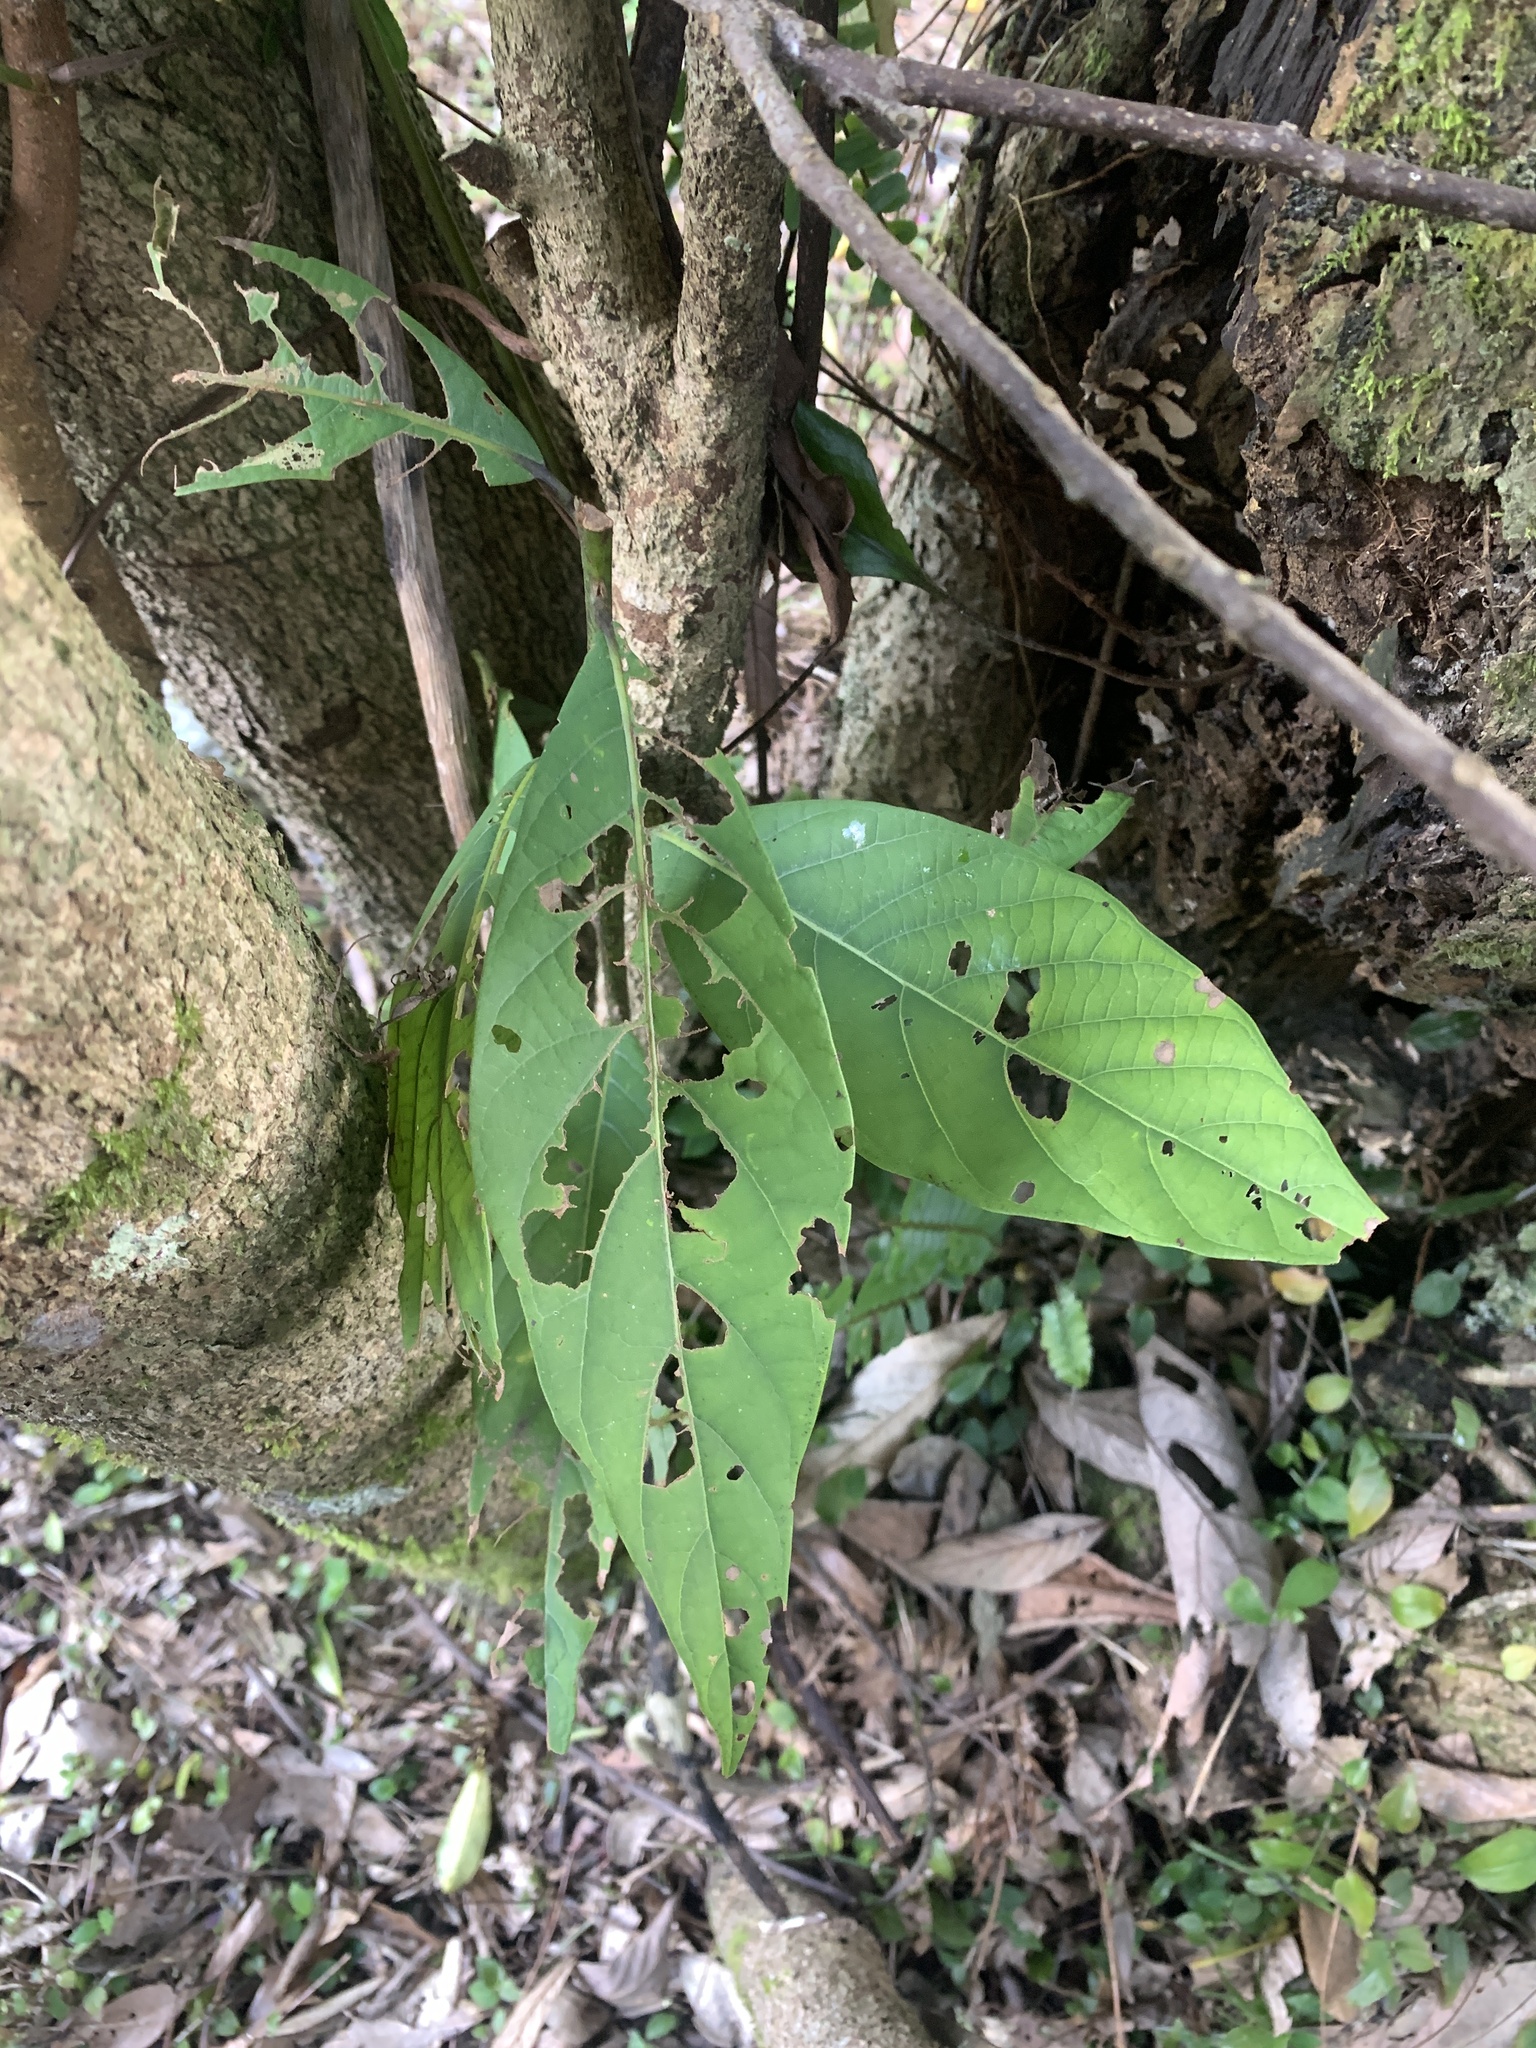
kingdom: Plantae
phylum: Tracheophyta
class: Magnoliopsida
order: Laurales
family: Lauraceae
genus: Phoebe
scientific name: Phoebe formosana
